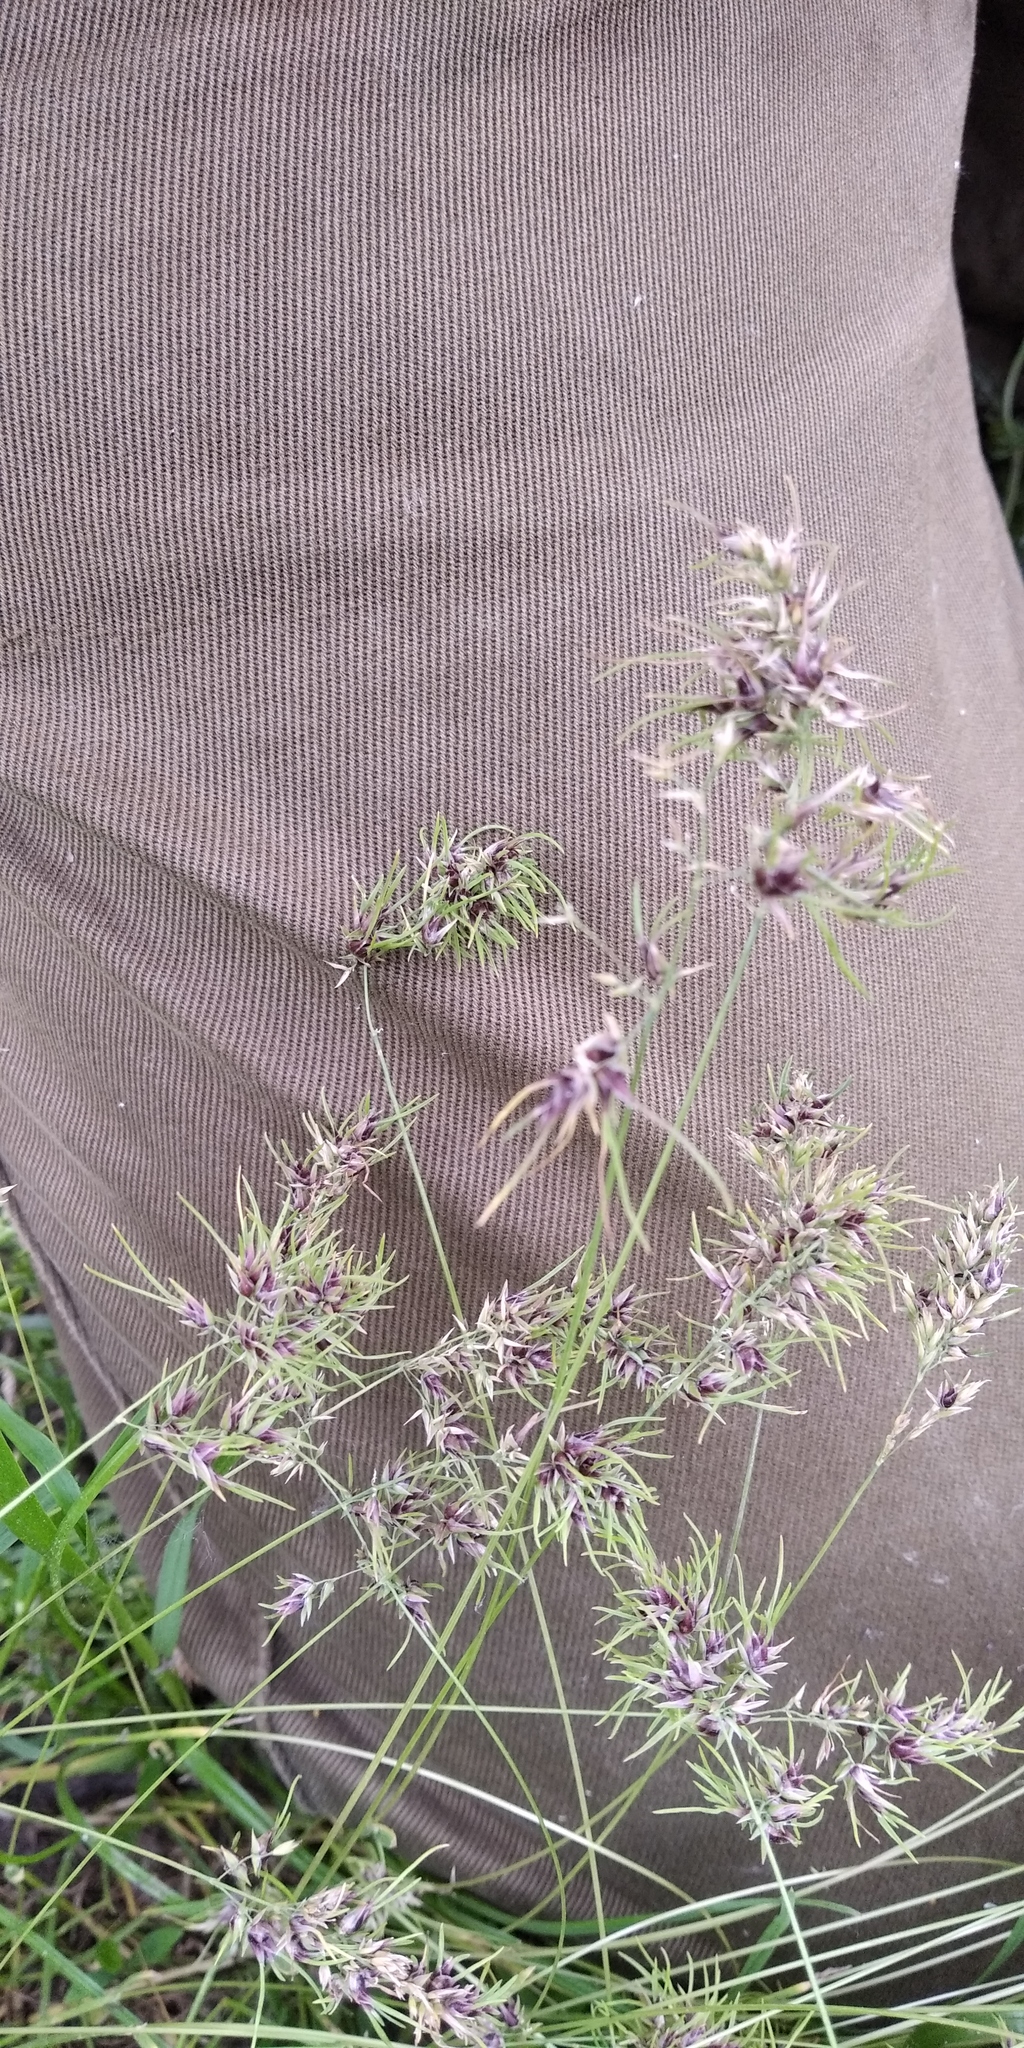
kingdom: Plantae
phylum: Tracheophyta
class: Liliopsida
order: Poales
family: Poaceae
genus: Poa
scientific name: Poa bulbosa
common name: Bulbous bluegrass
